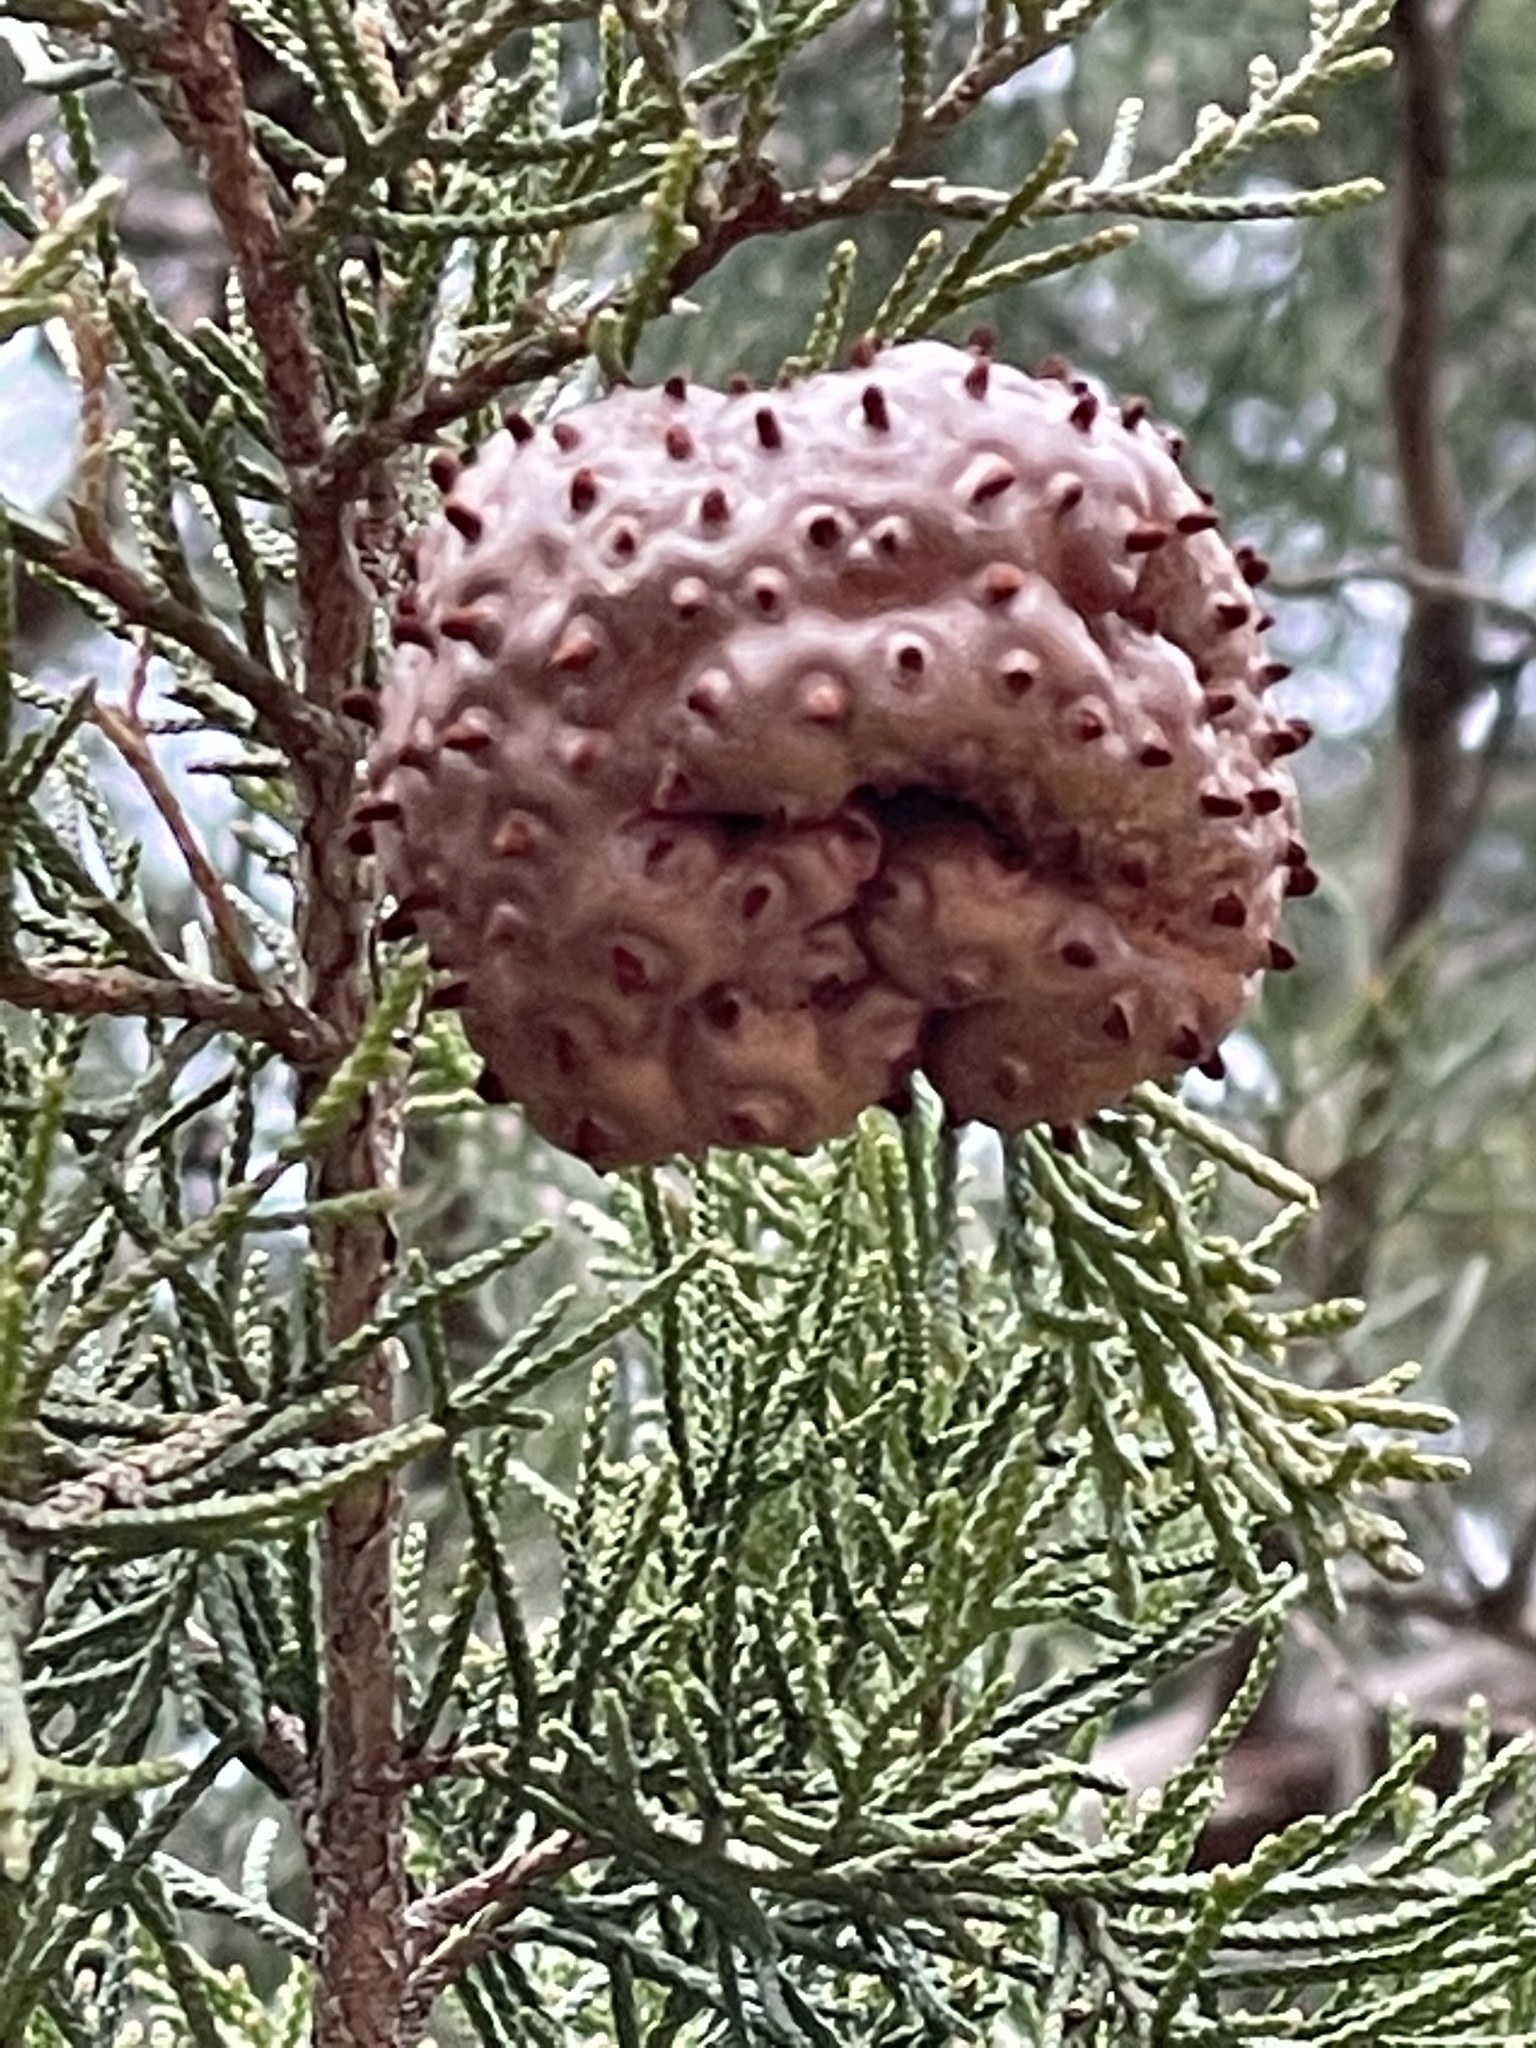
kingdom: Fungi
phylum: Basidiomycota
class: Pucciniomycetes
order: Pucciniales
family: Gymnosporangiaceae
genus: Gymnosporangium
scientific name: Gymnosporangium juniperi-virginianae
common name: Juniper-apple rust
